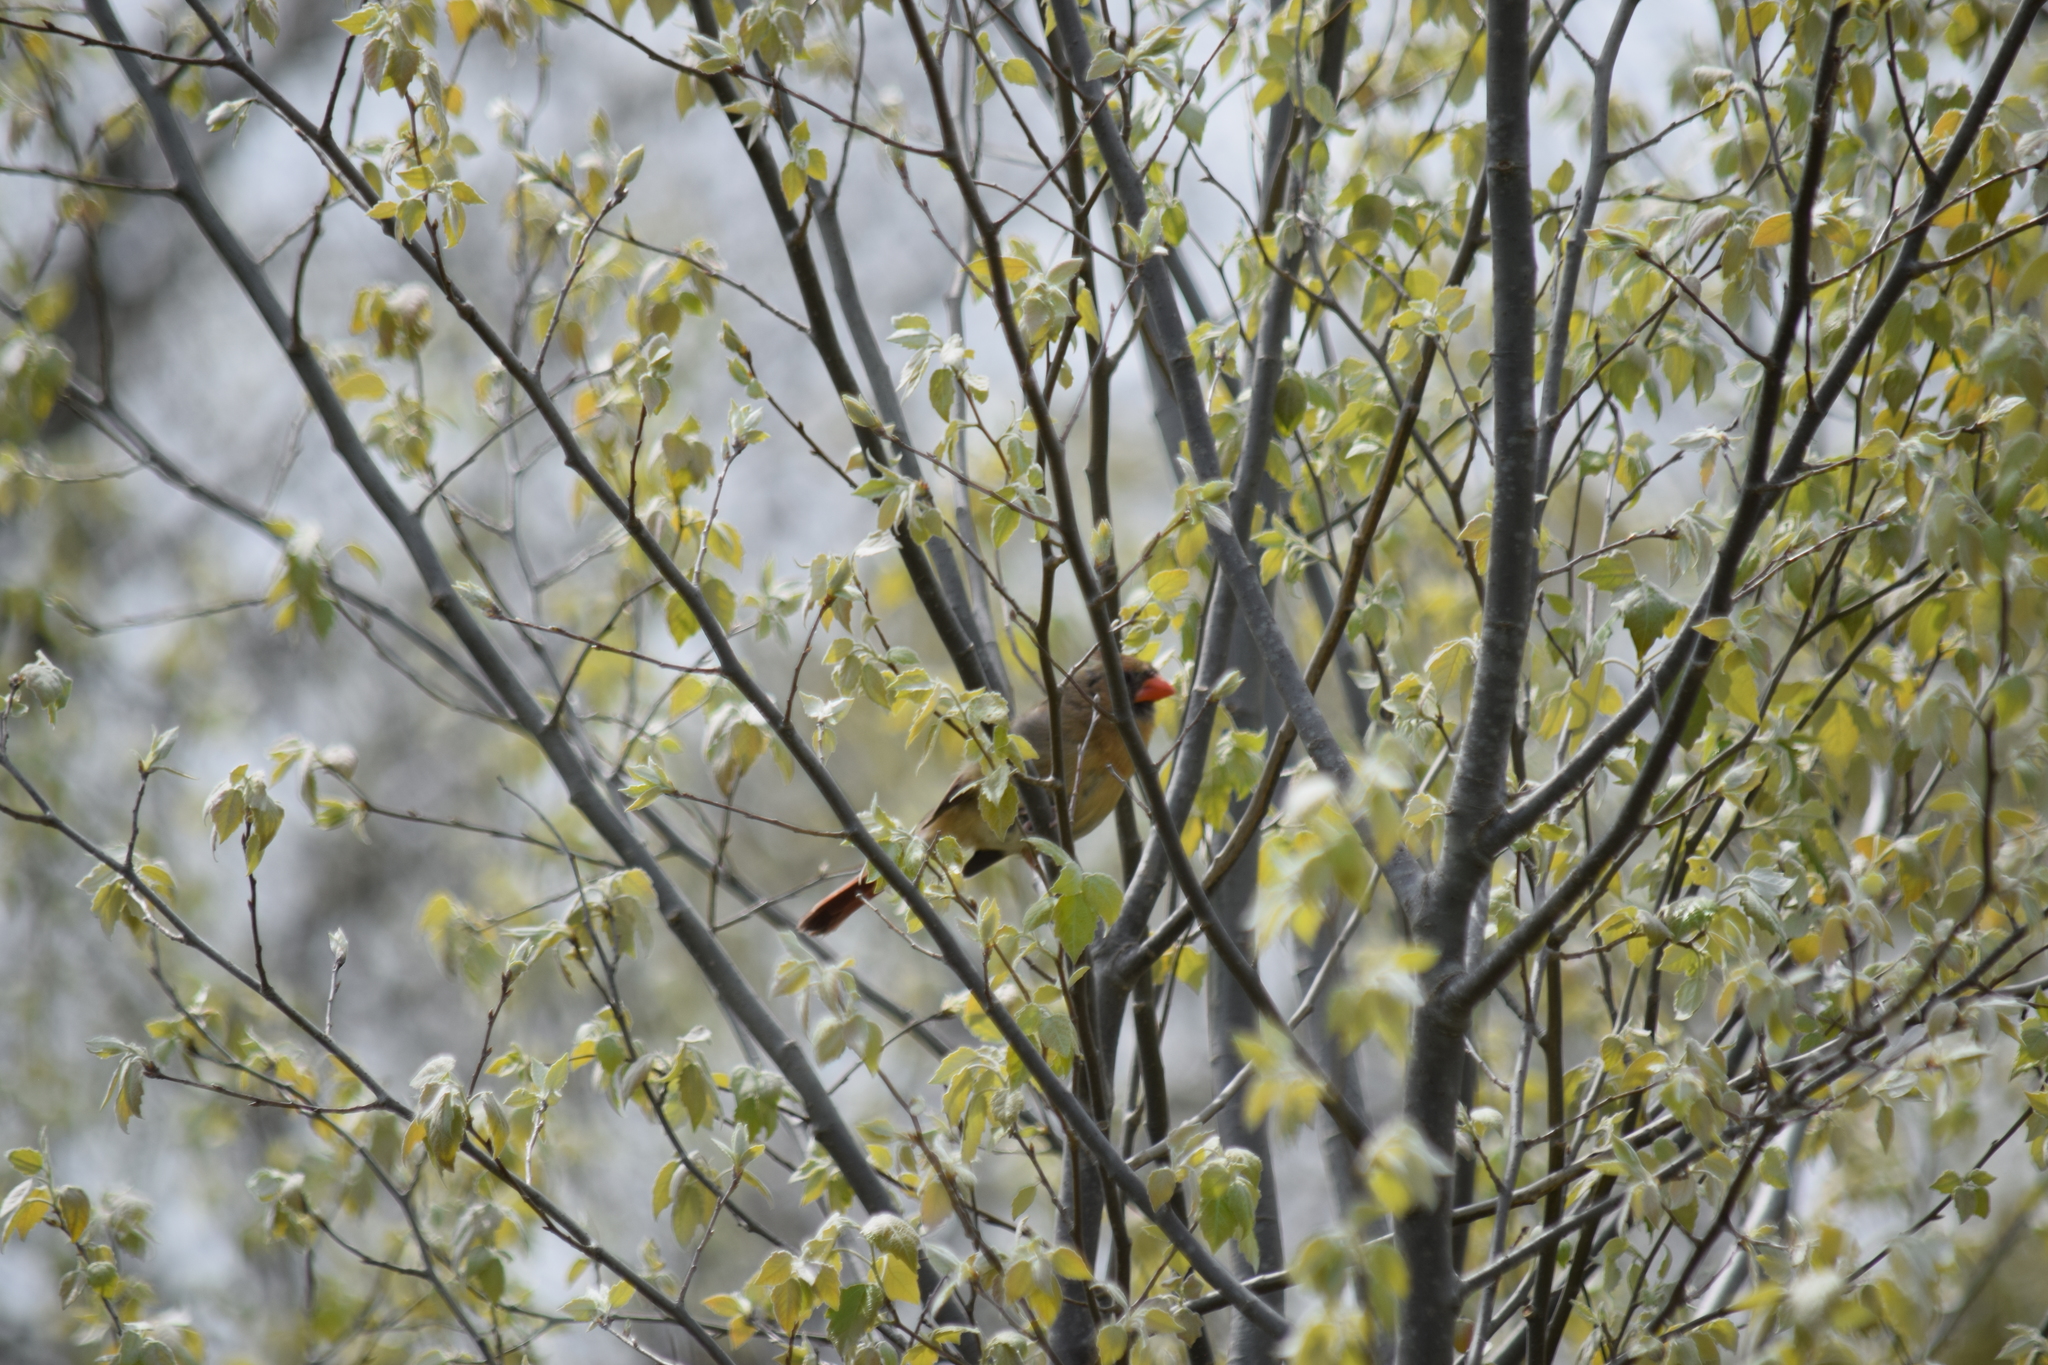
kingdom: Animalia
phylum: Chordata
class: Aves
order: Passeriformes
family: Cardinalidae
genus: Cardinalis
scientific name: Cardinalis cardinalis
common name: Northern cardinal
